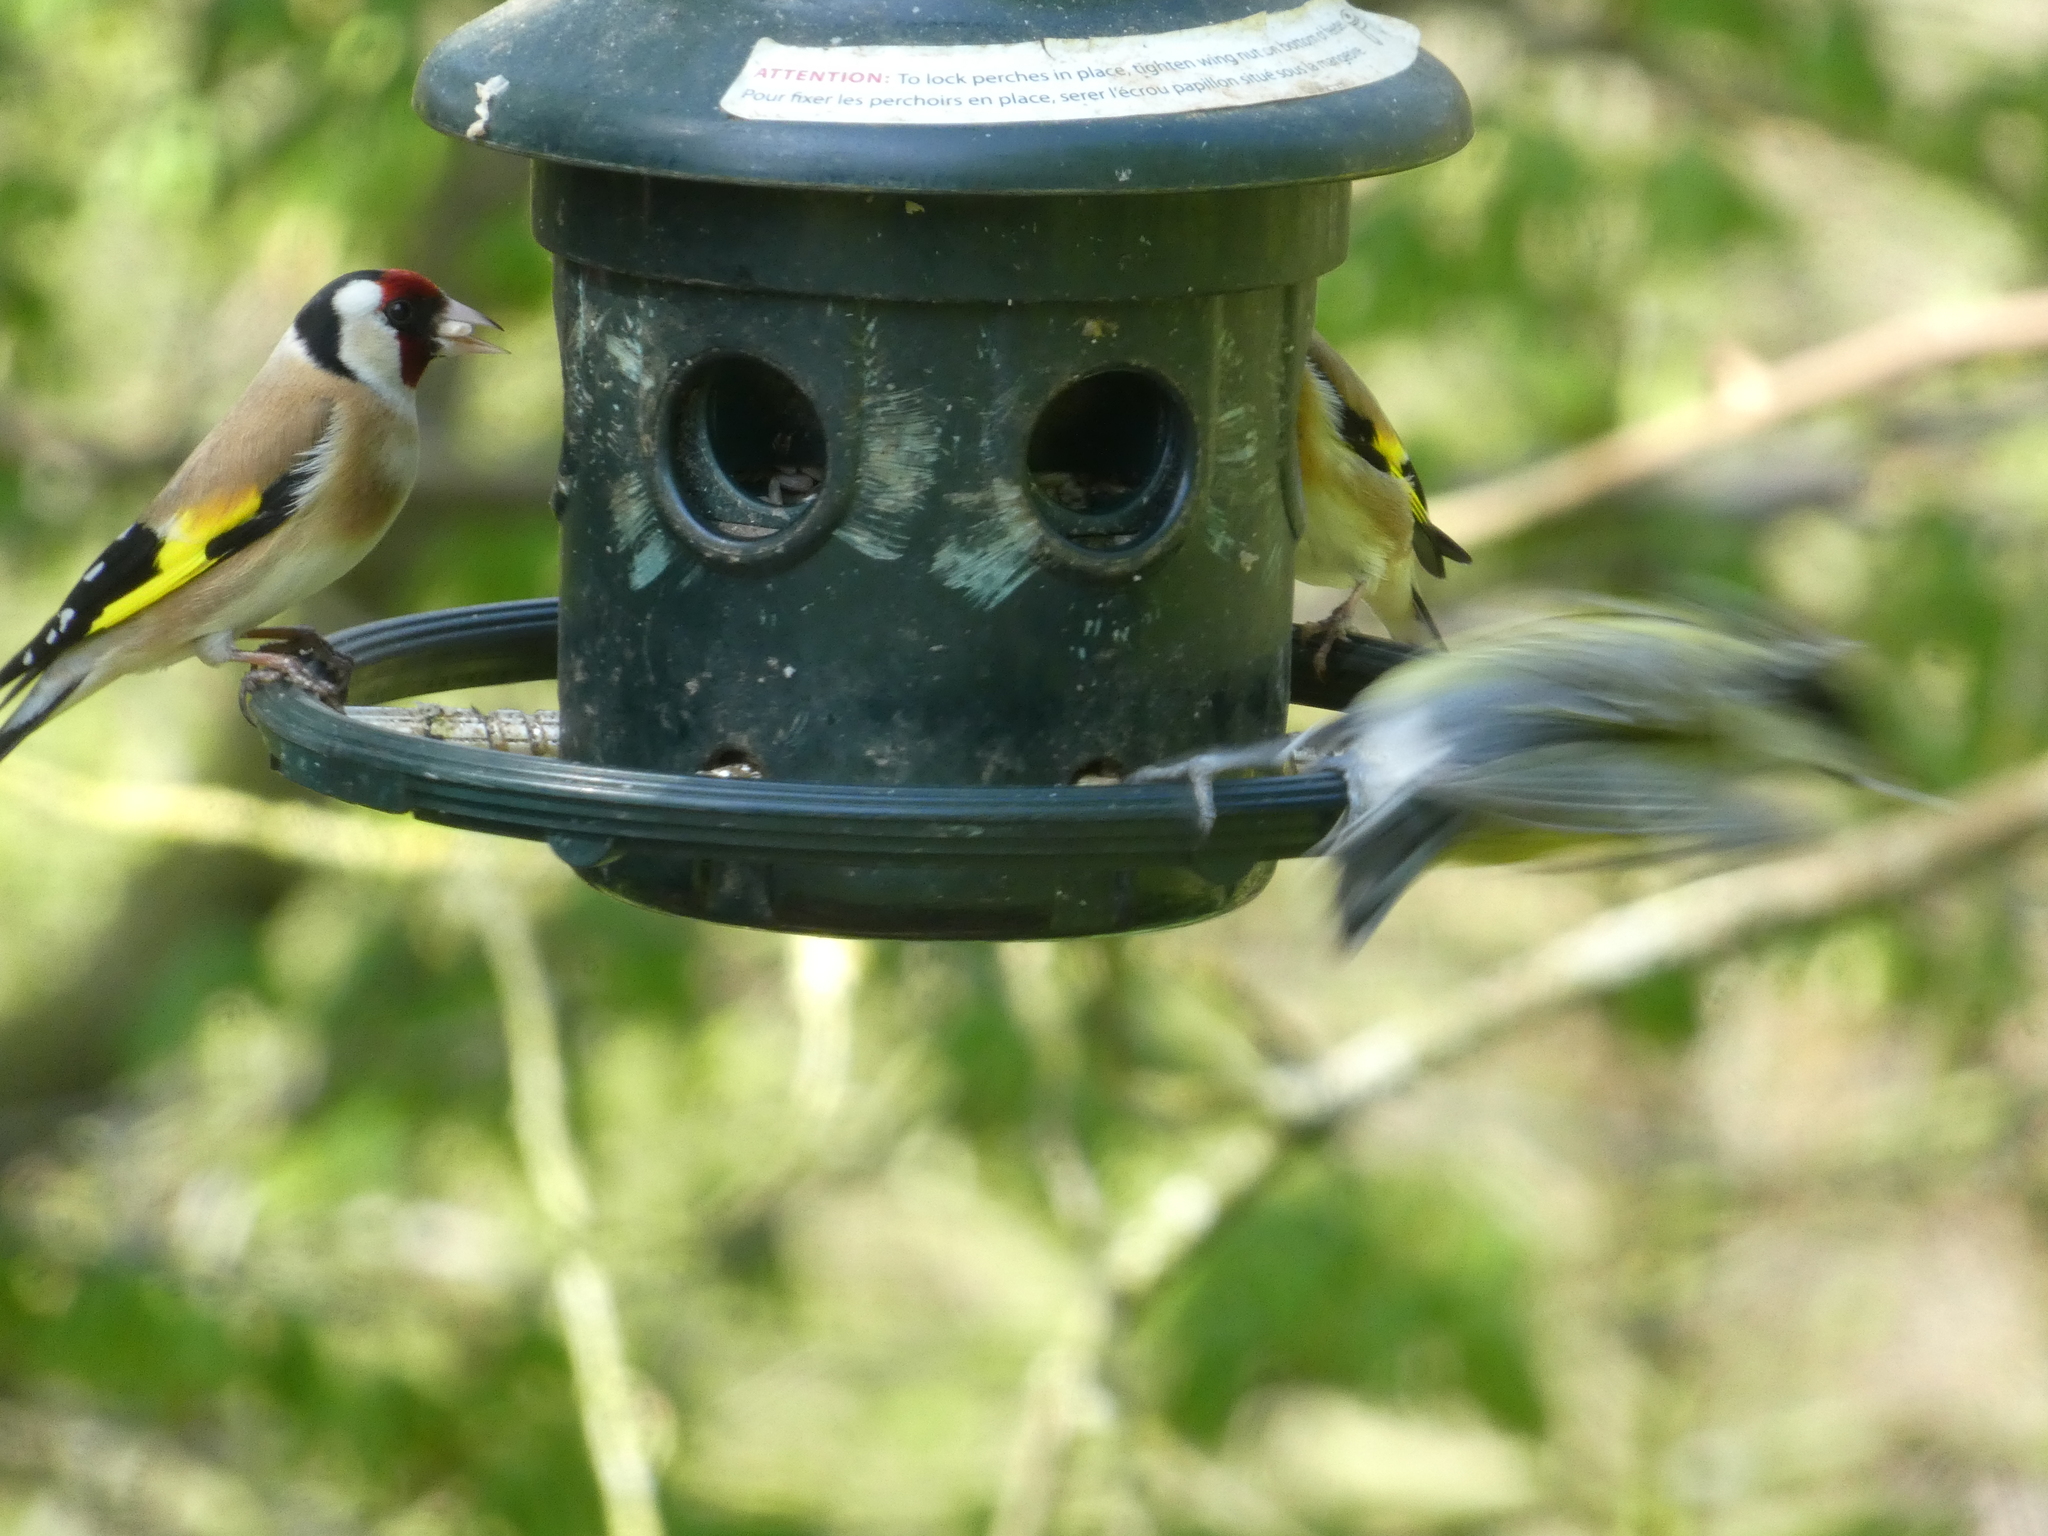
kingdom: Animalia
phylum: Chordata
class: Aves
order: Passeriformes
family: Fringillidae
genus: Carduelis
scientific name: Carduelis carduelis
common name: European goldfinch
